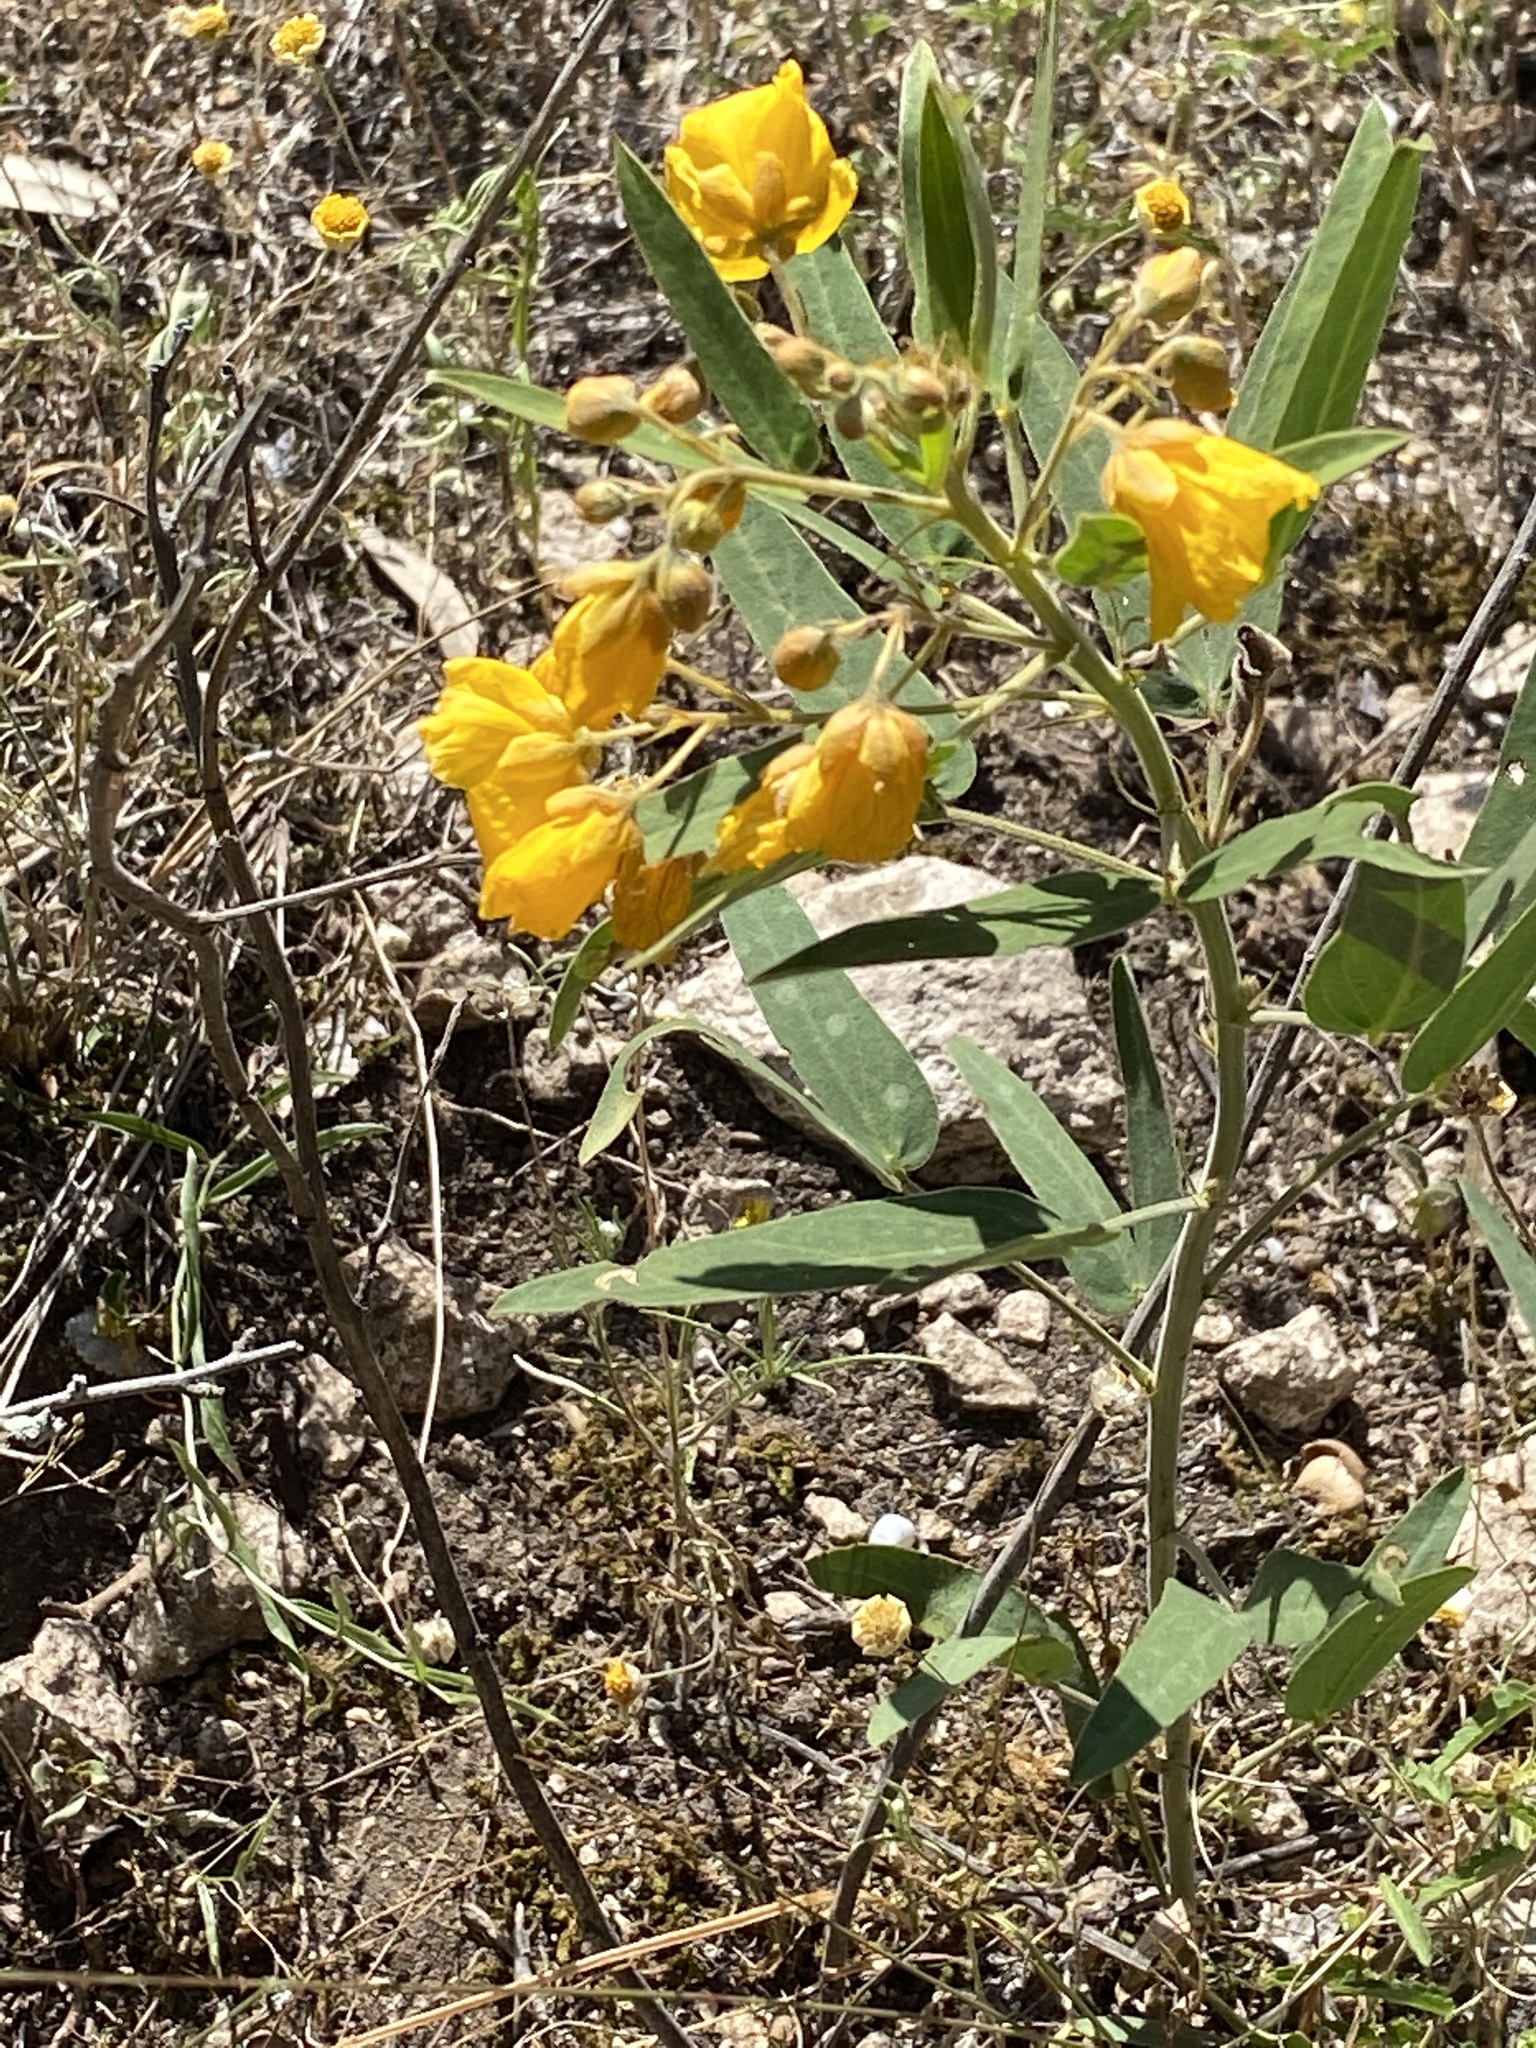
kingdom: Plantae
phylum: Tracheophyta
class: Magnoliopsida
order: Fabales
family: Fabaceae
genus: Senna
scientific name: Senna roemeriana
